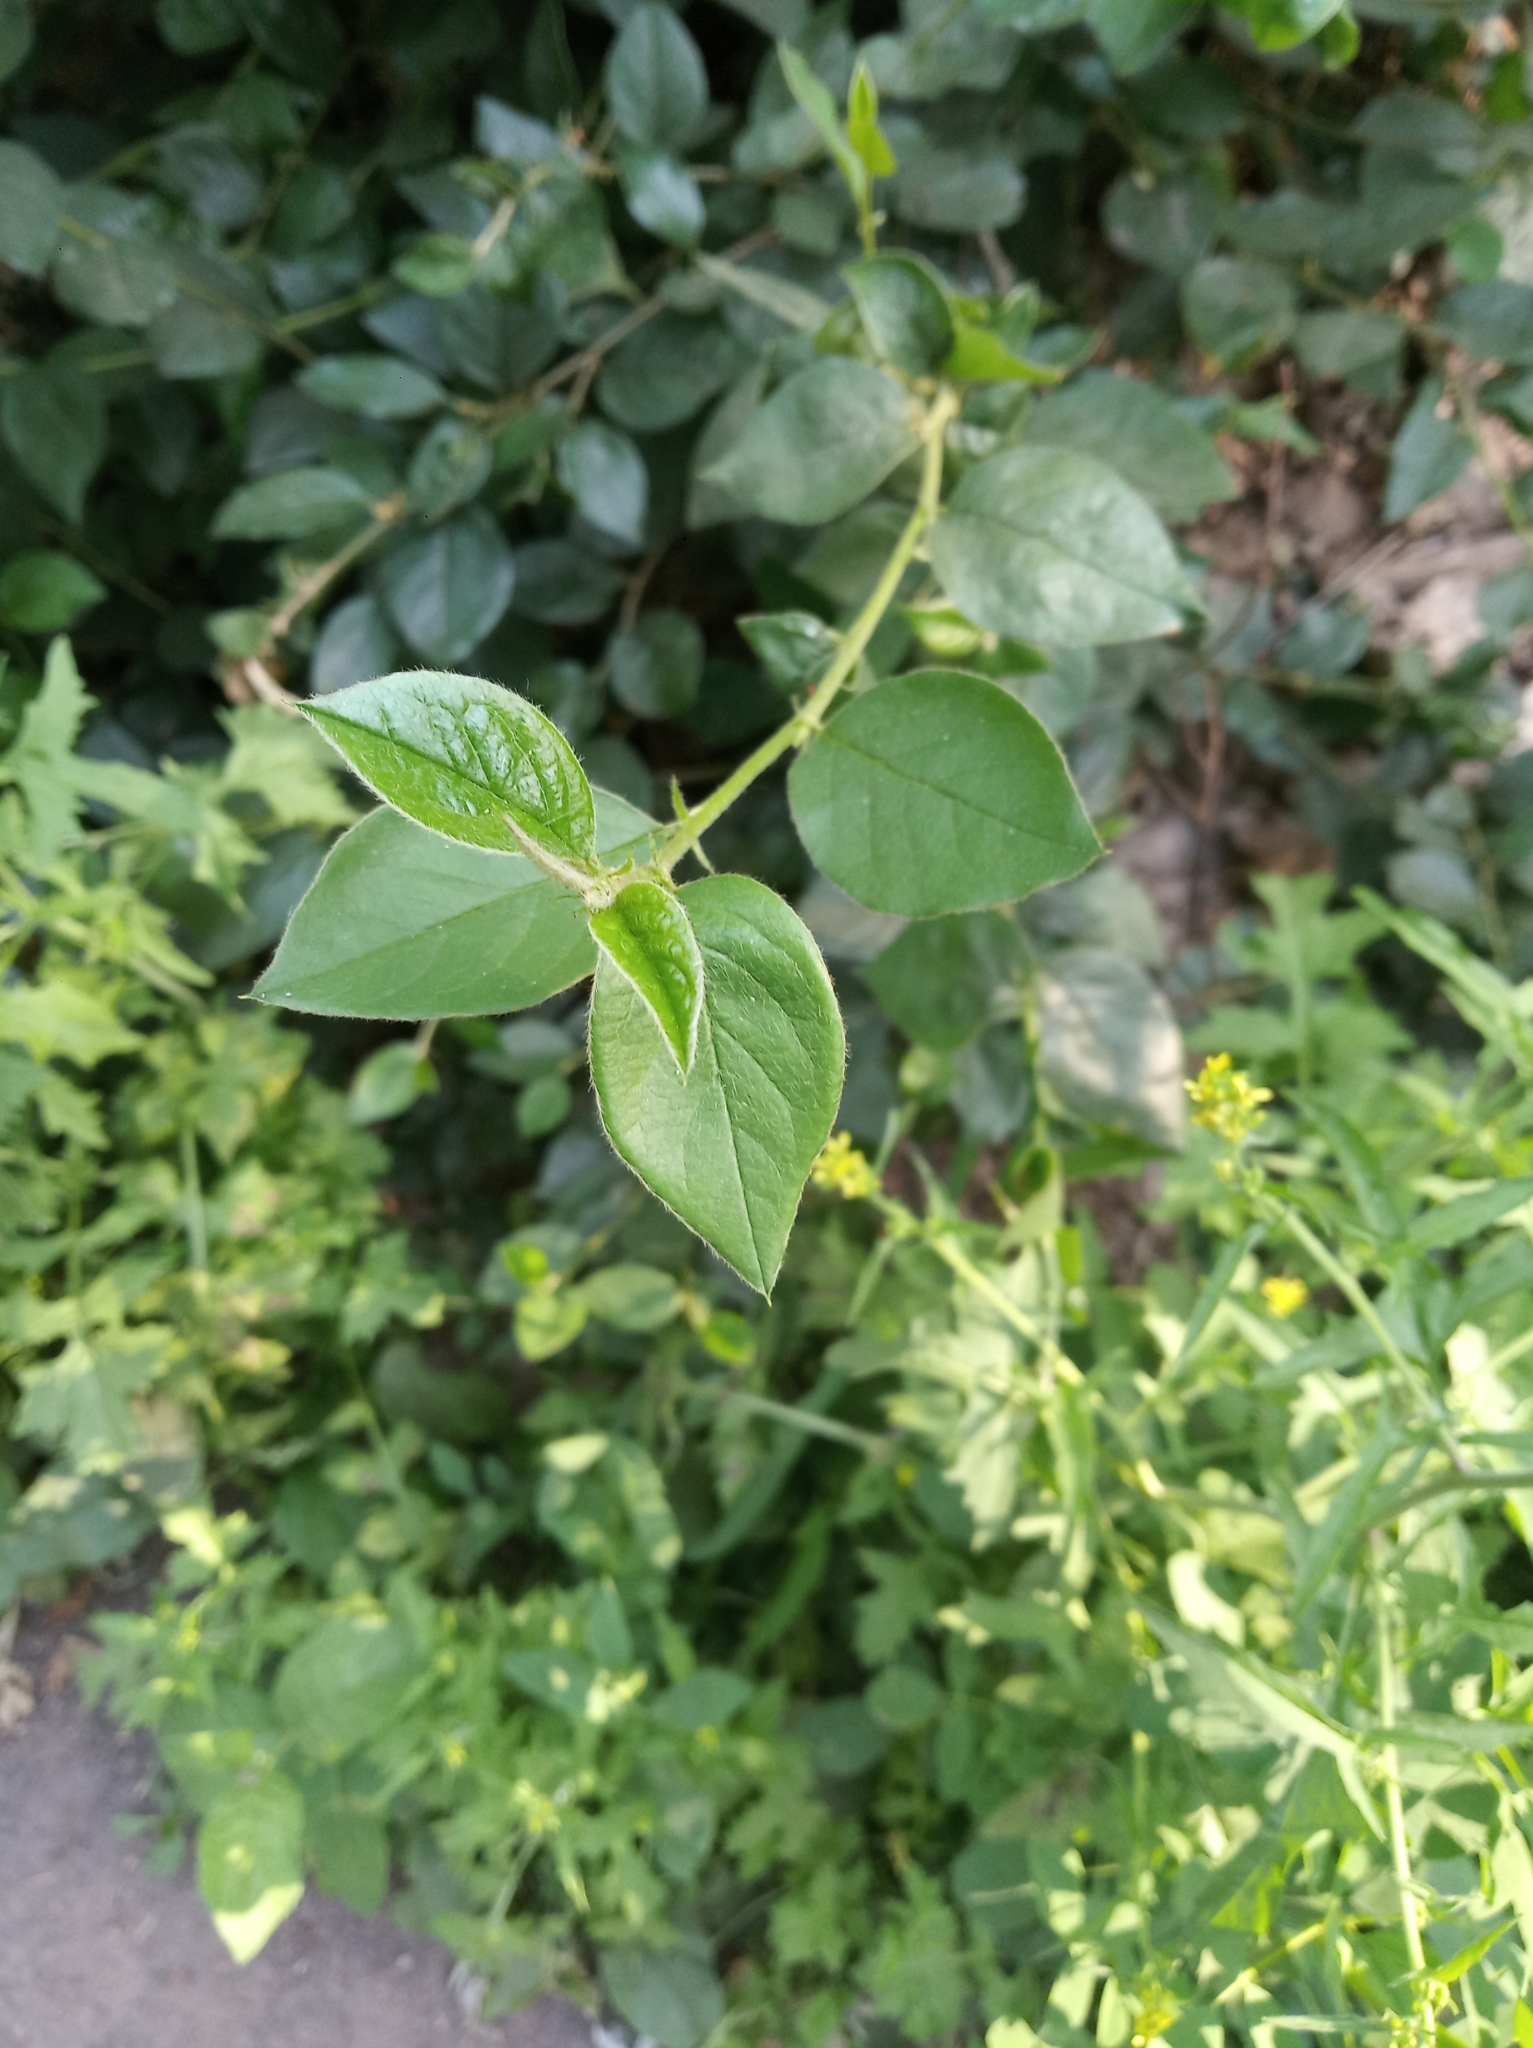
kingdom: Plantae
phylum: Tracheophyta
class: Magnoliopsida
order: Rosales
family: Rosaceae
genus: Cotoneaster
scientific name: Cotoneaster acutifolius
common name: Peking cotoneaster
